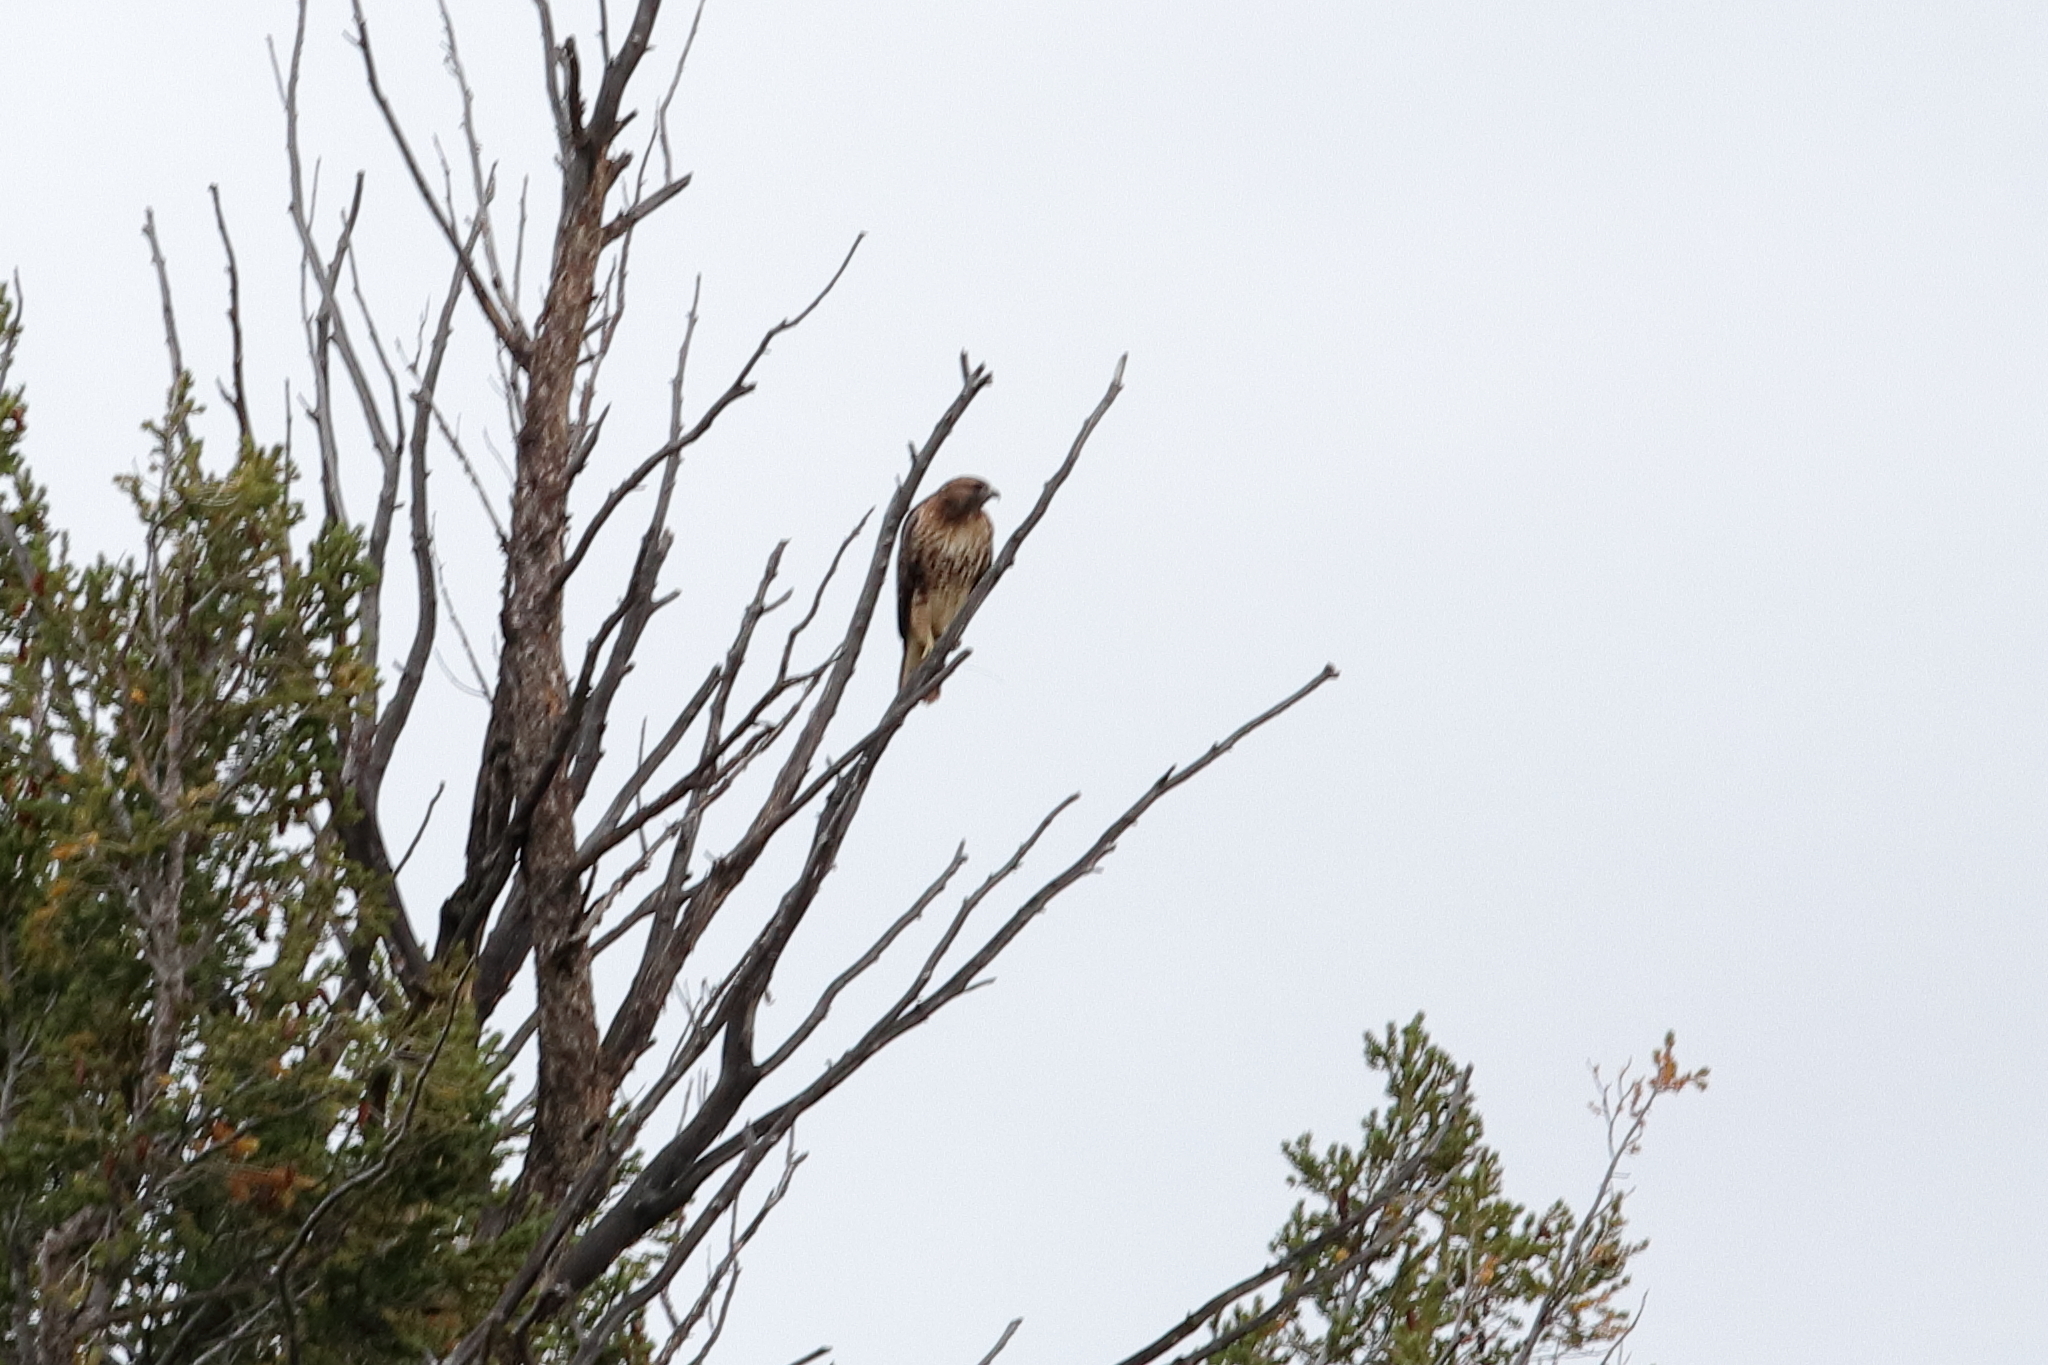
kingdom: Animalia
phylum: Chordata
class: Aves
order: Accipitriformes
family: Accipitridae
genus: Buteo
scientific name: Buteo jamaicensis
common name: Red-tailed hawk
